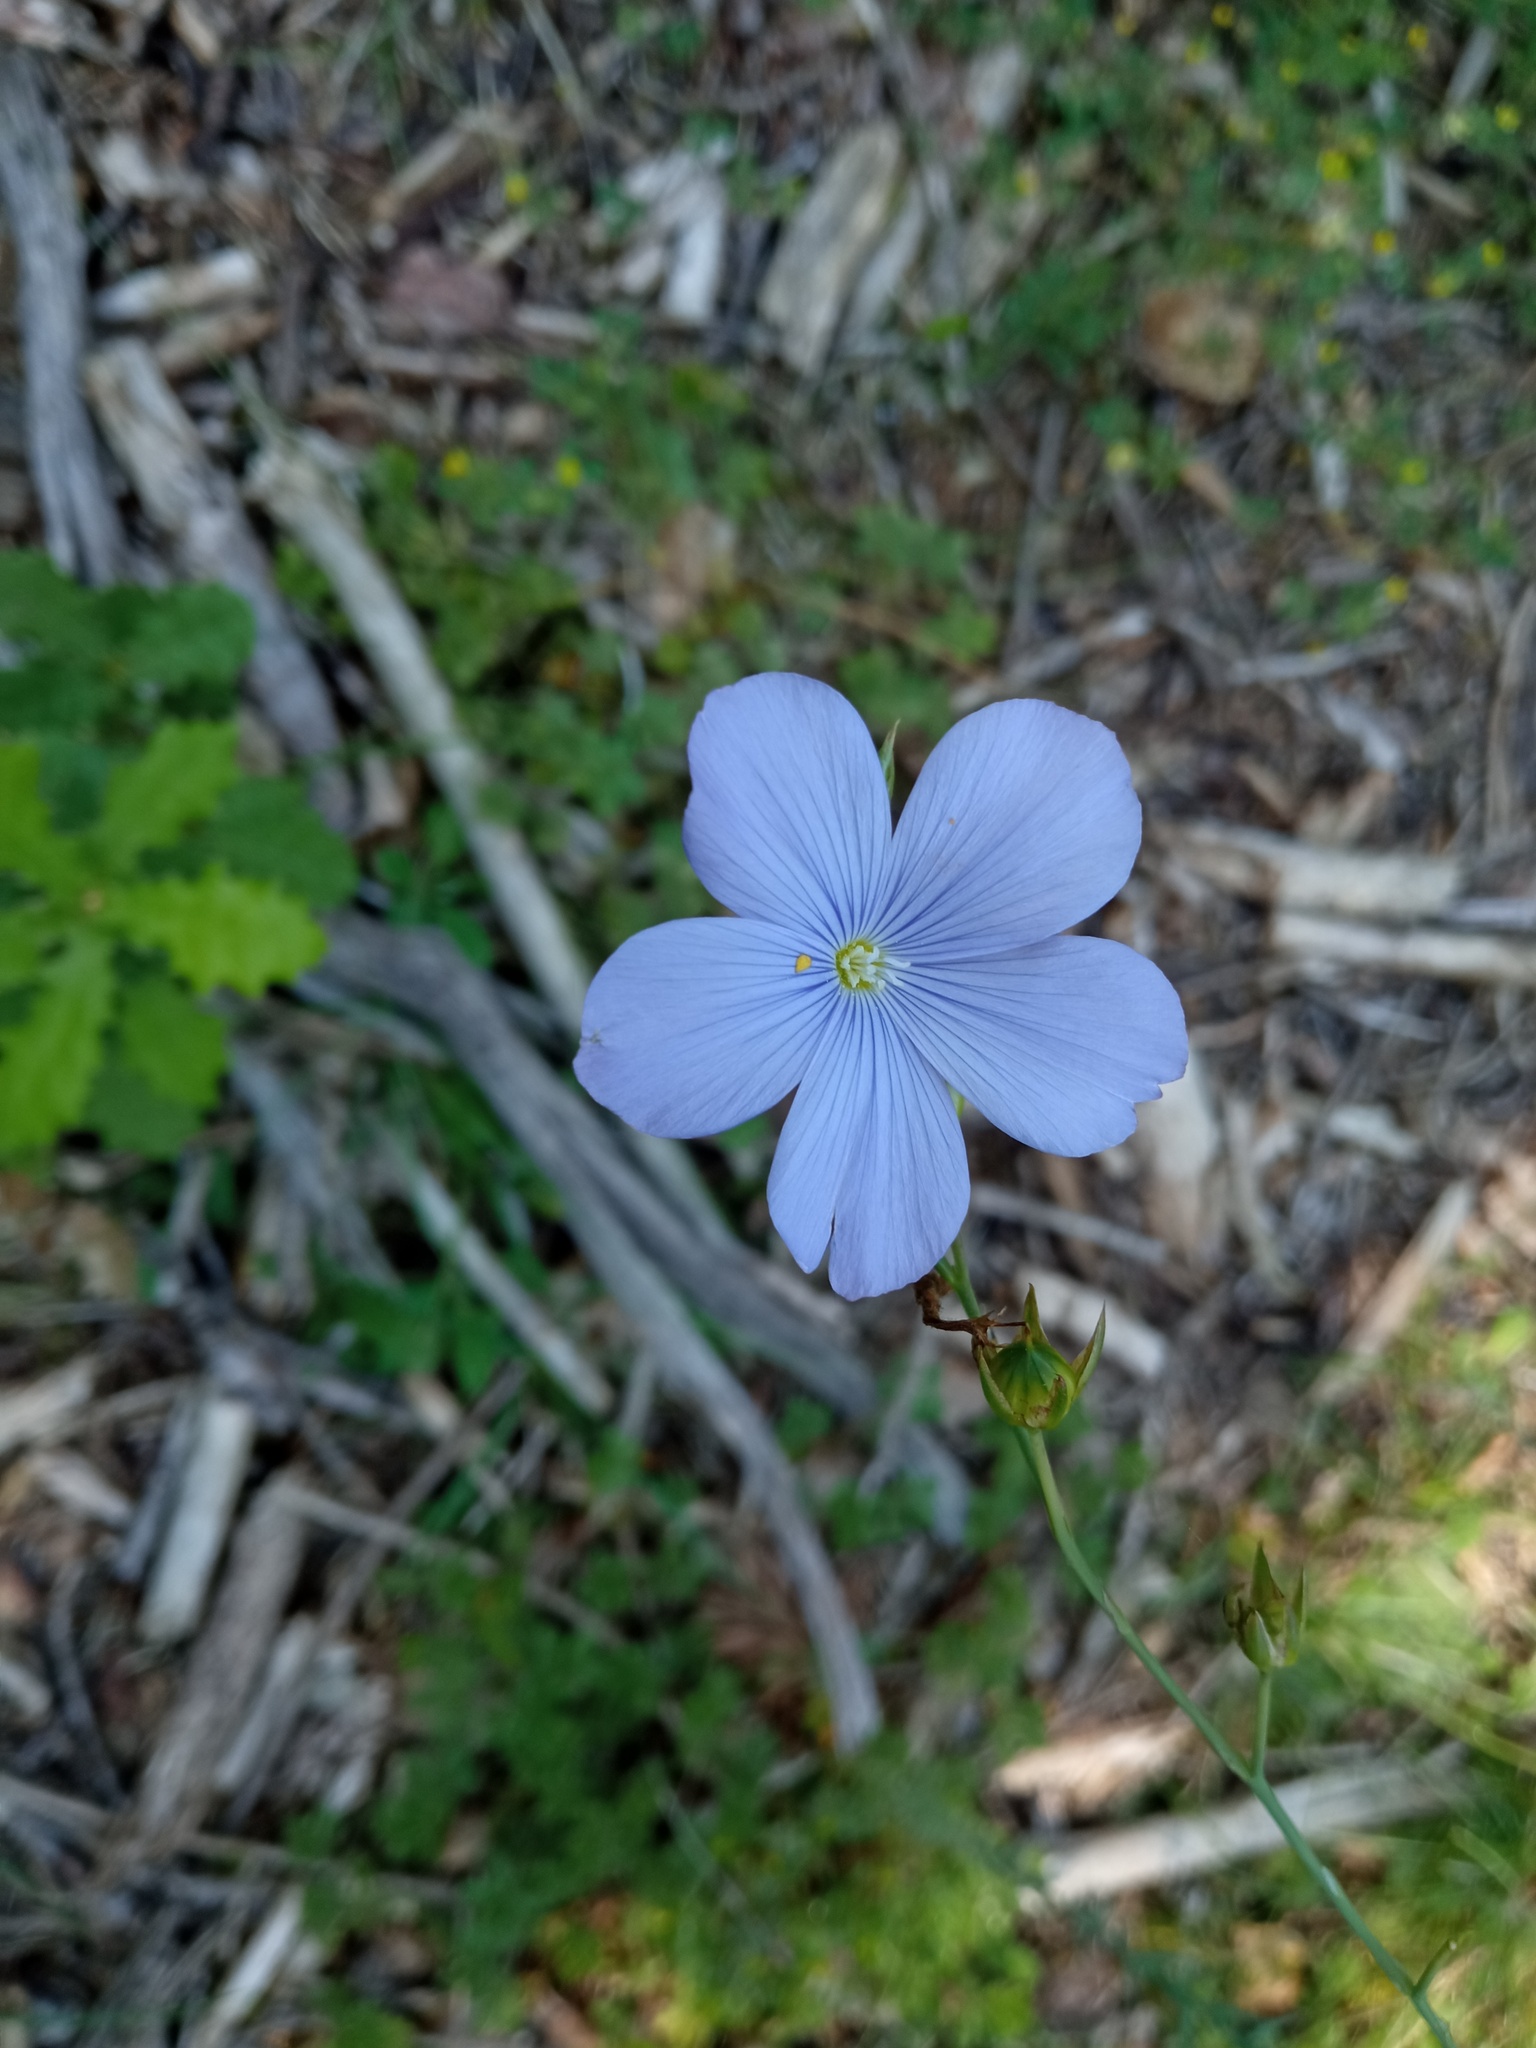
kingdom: Plantae
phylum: Tracheophyta
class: Magnoliopsida
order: Malpighiales
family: Linaceae
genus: Linum
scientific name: Linum narbonense
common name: Flax
